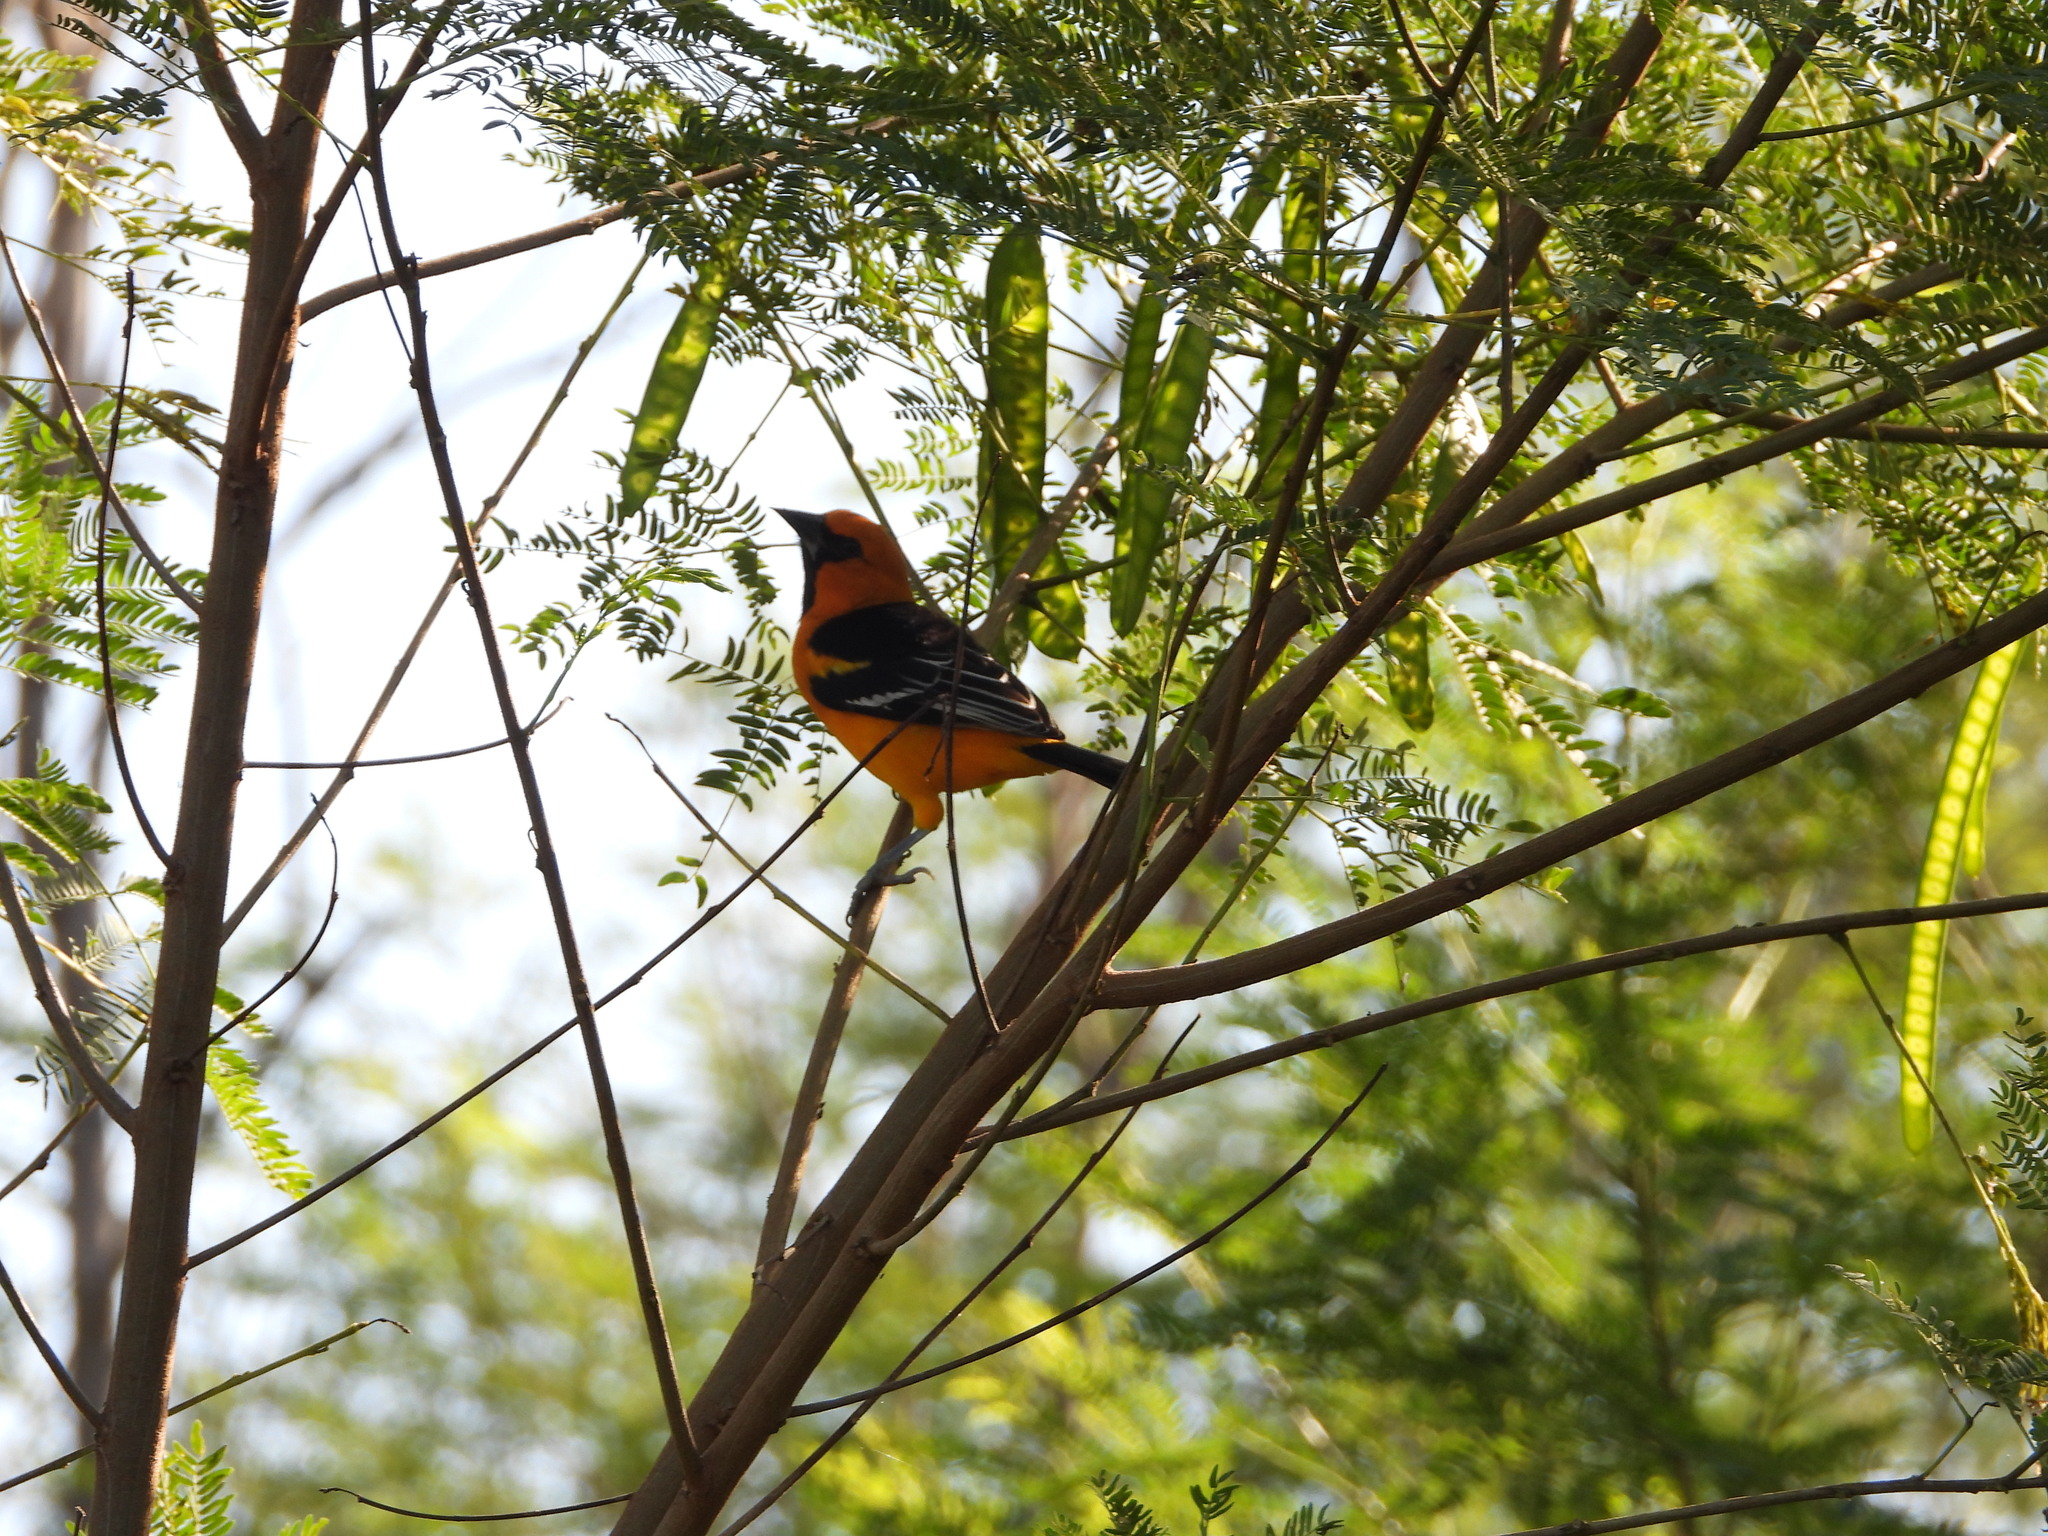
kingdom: Animalia
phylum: Chordata
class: Aves
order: Passeriformes
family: Icteridae
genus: Icterus
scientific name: Icterus gularis
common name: Altamira oriole
